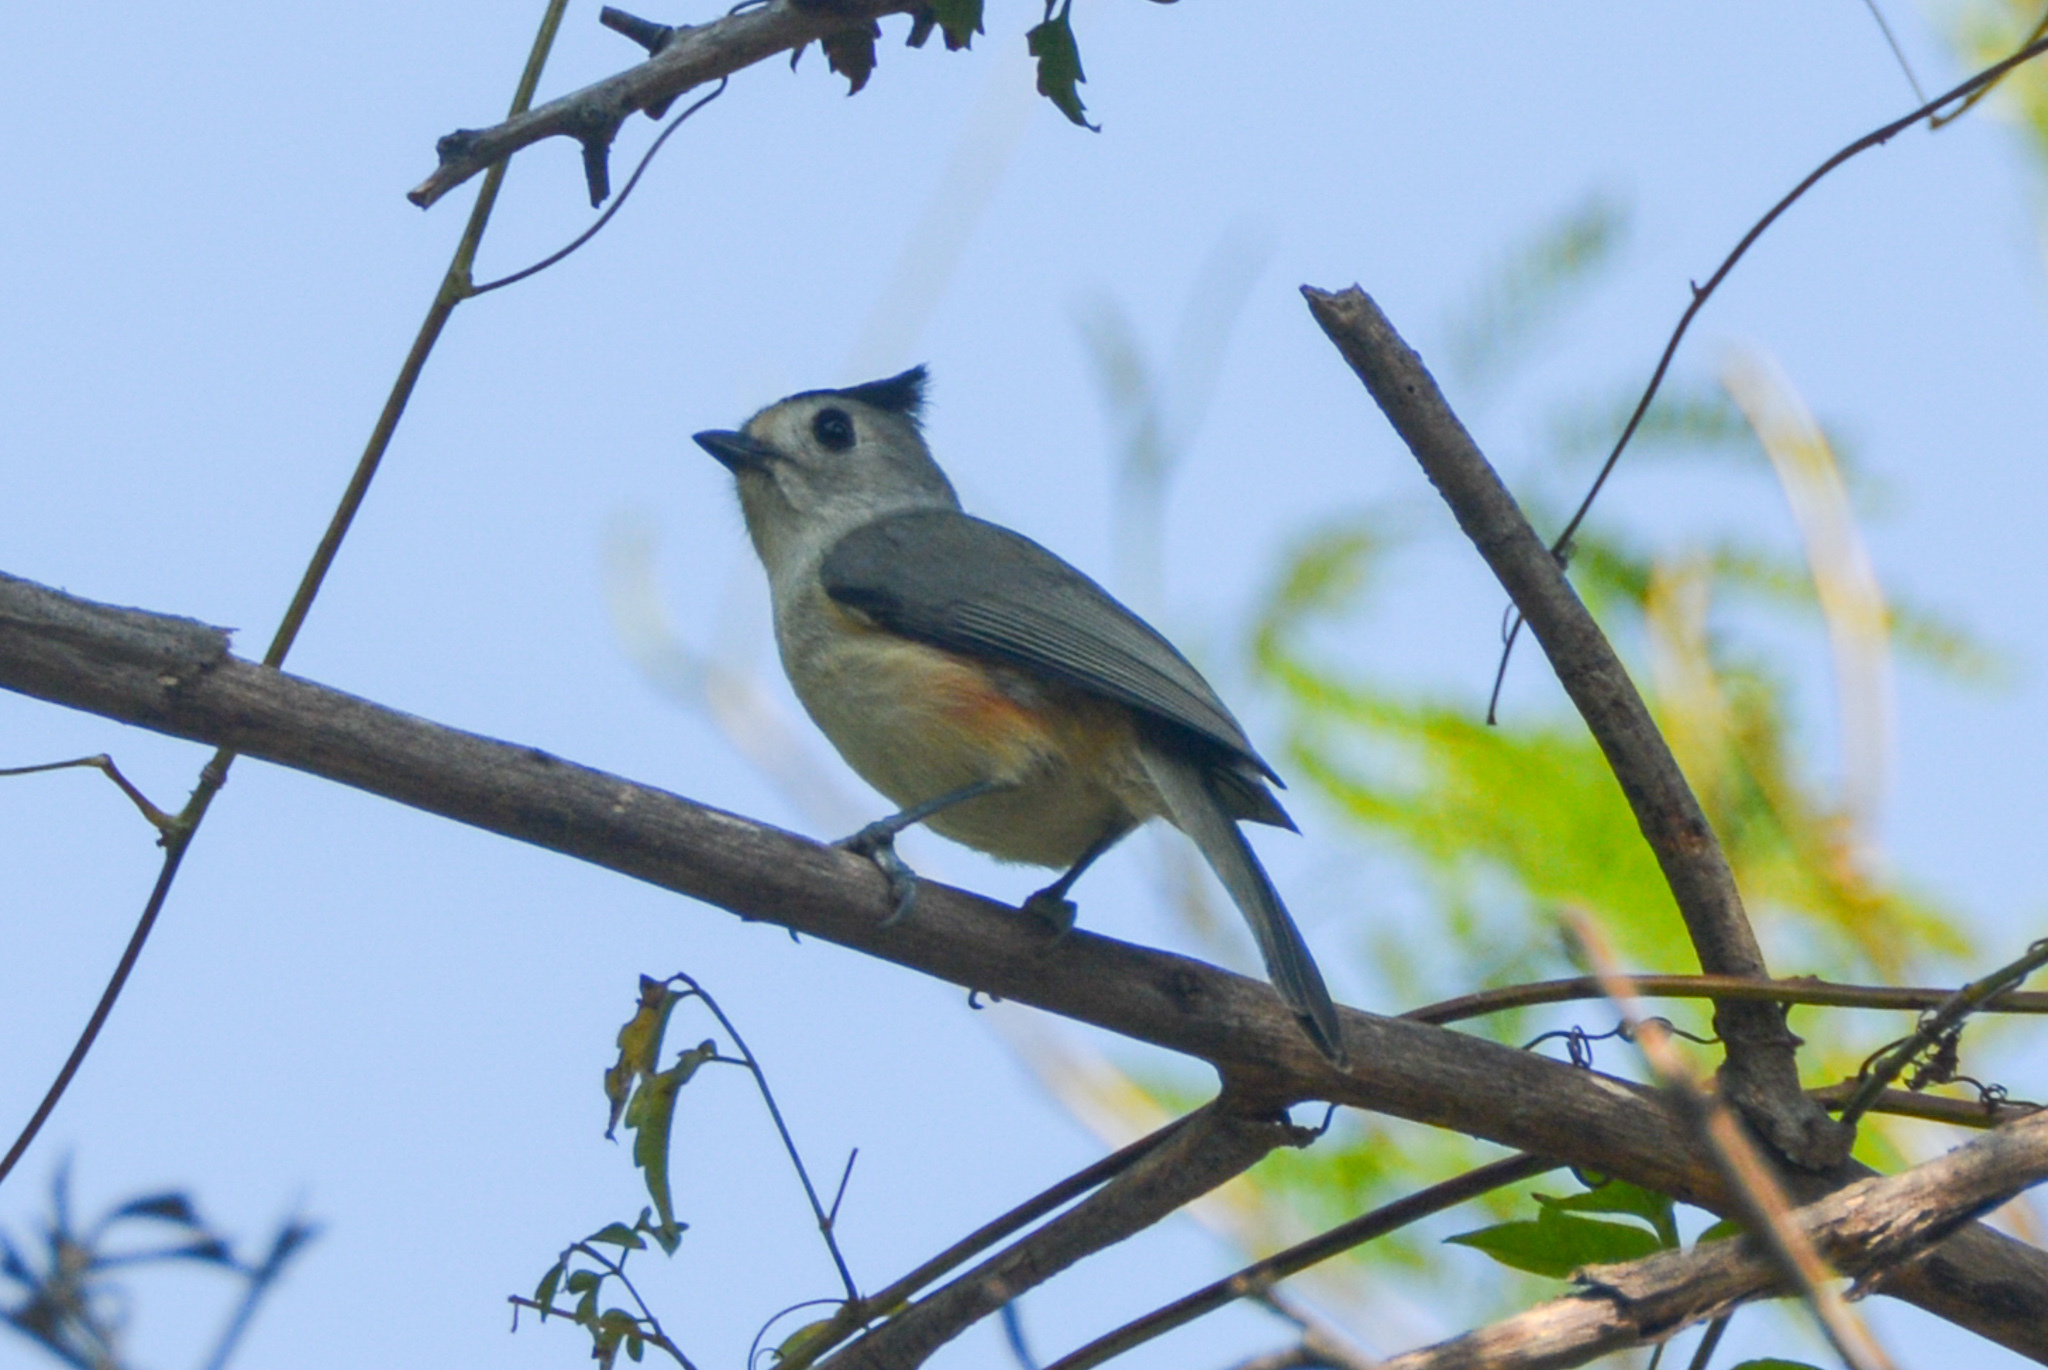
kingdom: Animalia
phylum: Chordata
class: Aves
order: Passeriformes
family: Paridae
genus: Baeolophus
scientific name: Baeolophus atricristatus
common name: Black-crested titmouse
